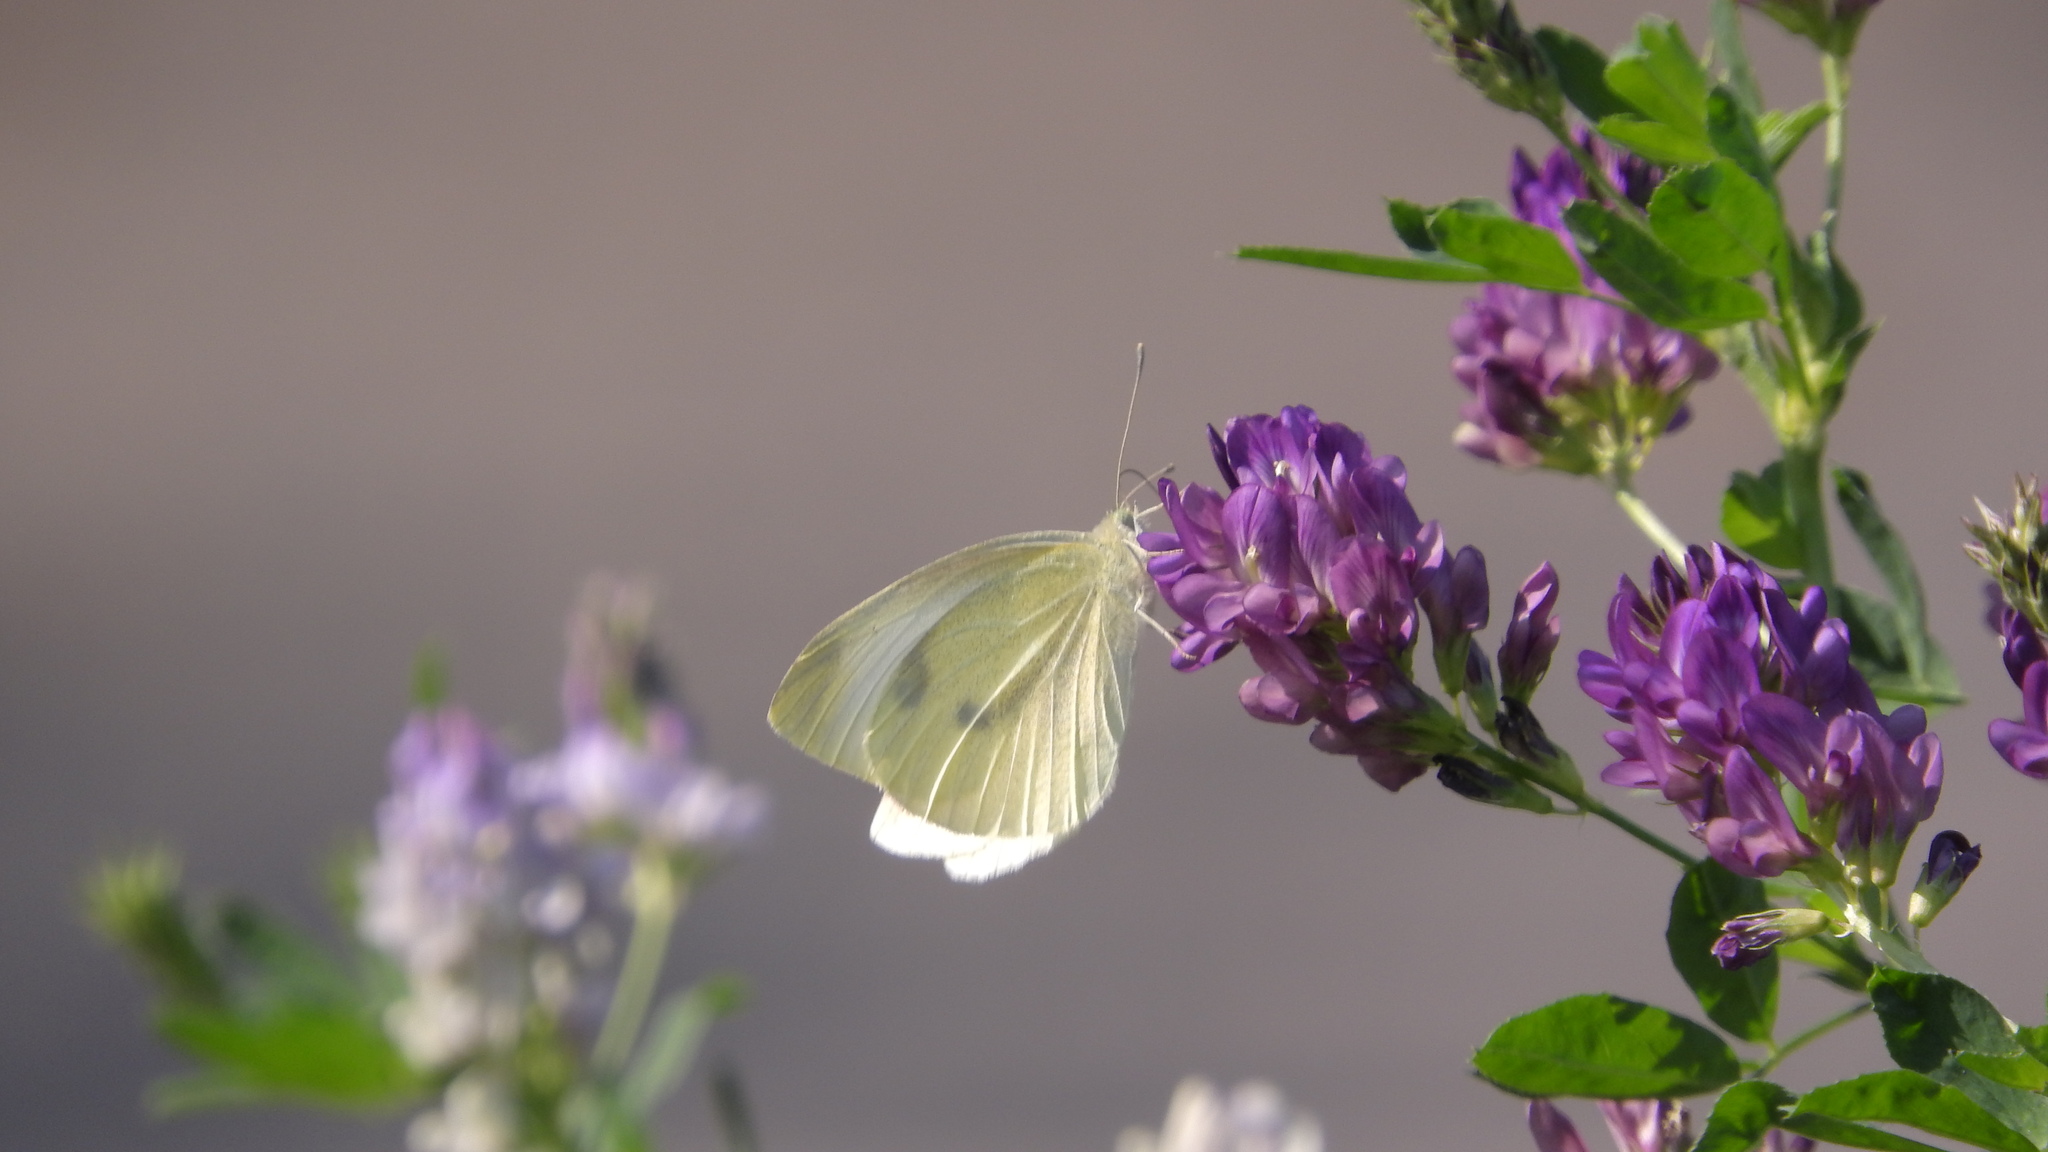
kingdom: Animalia
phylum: Arthropoda
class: Insecta
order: Lepidoptera
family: Pieridae
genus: Pieris
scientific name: Pieris rapae
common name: Small white
